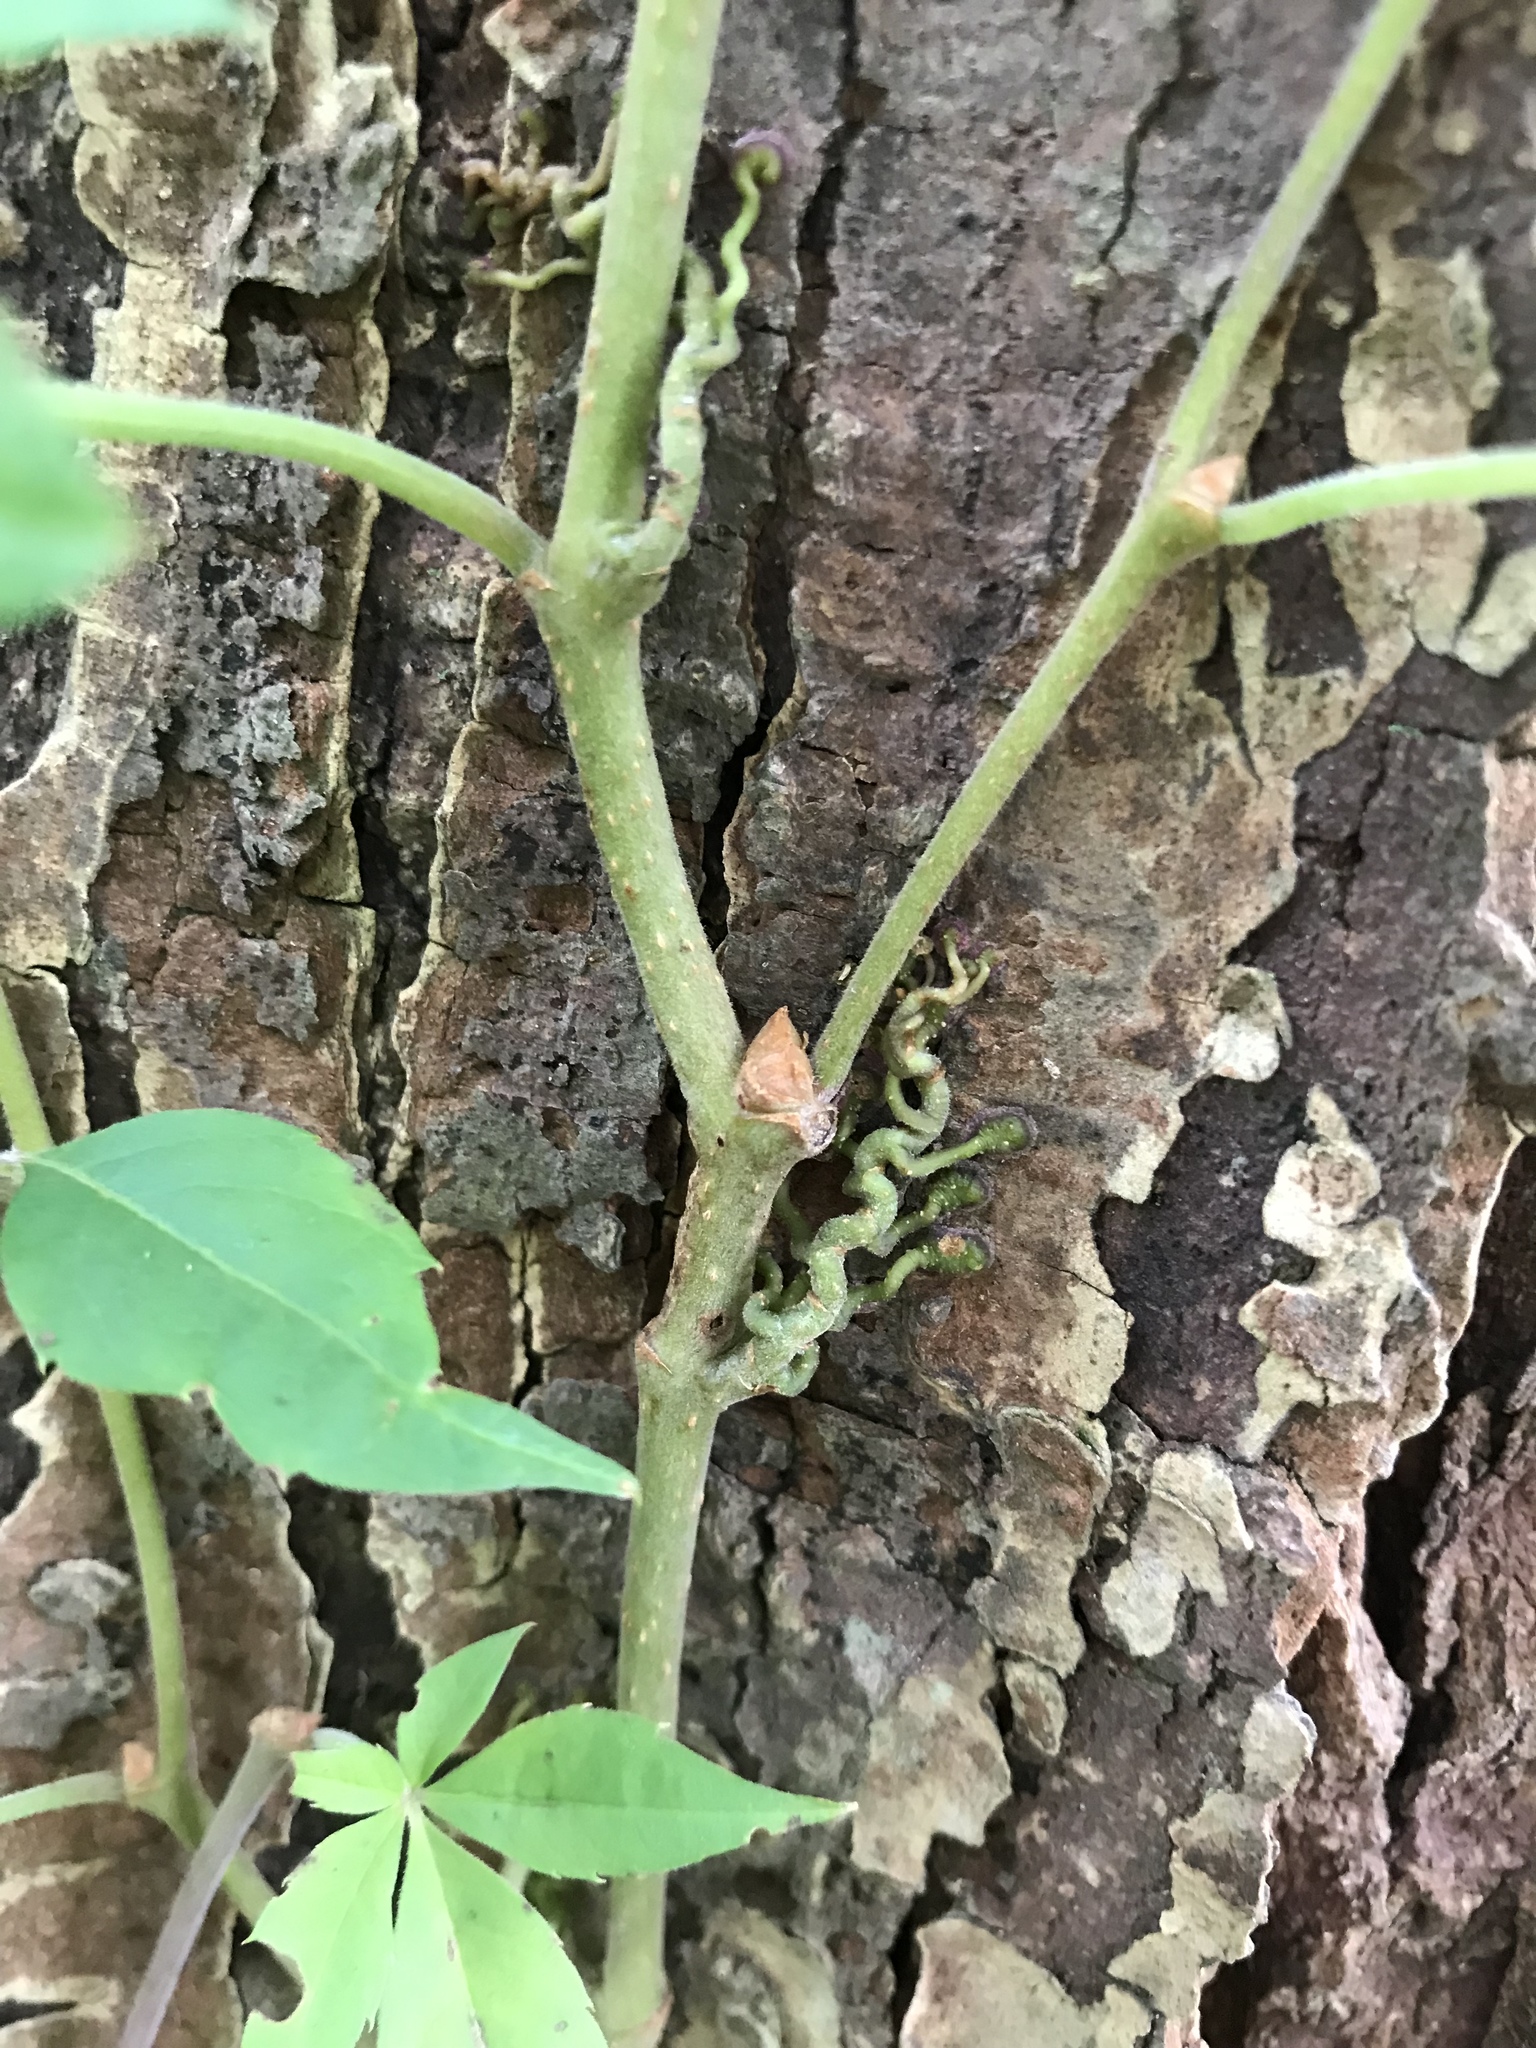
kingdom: Plantae
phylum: Tracheophyta
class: Magnoliopsida
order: Vitales
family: Vitaceae
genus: Parthenocissus
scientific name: Parthenocissus quinquefolia
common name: Virginia-creeper
